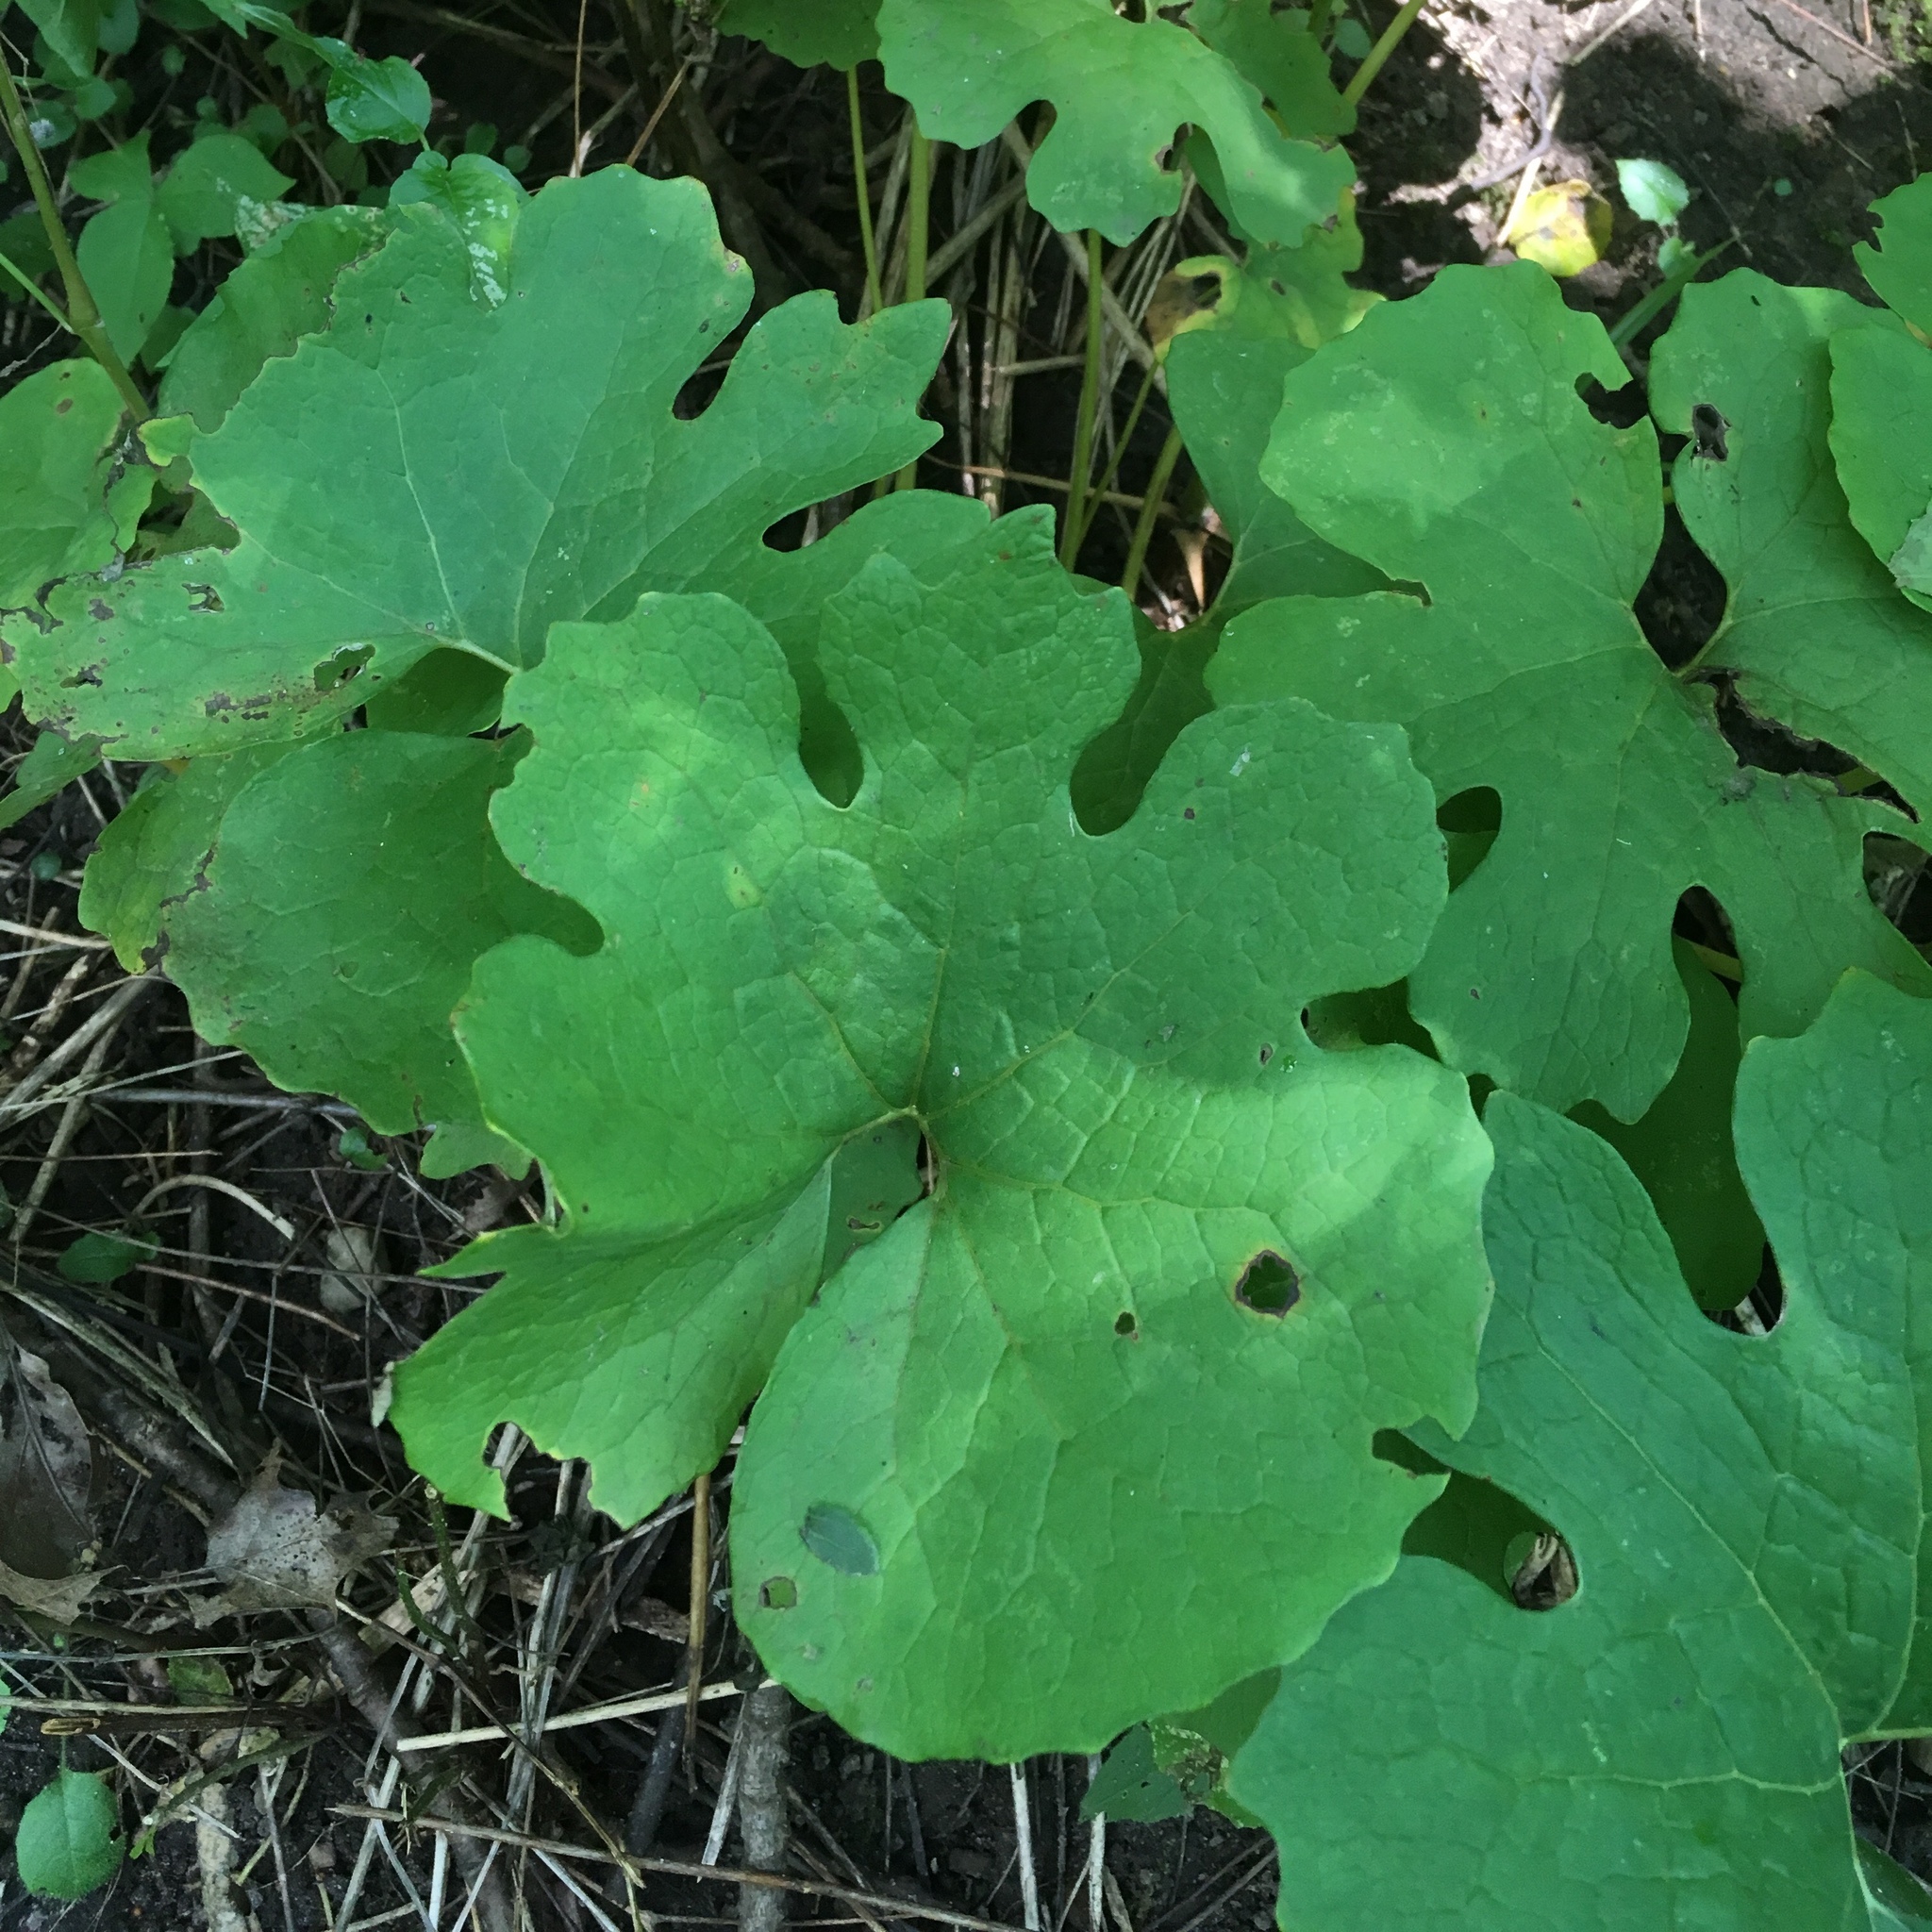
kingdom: Plantae
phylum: Tracheophyta
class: Magnoliopsida
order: Ranunculales
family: Papaveraceae
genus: Sanguinaria
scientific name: Sanguinaria canadensis
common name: Bloodroot
